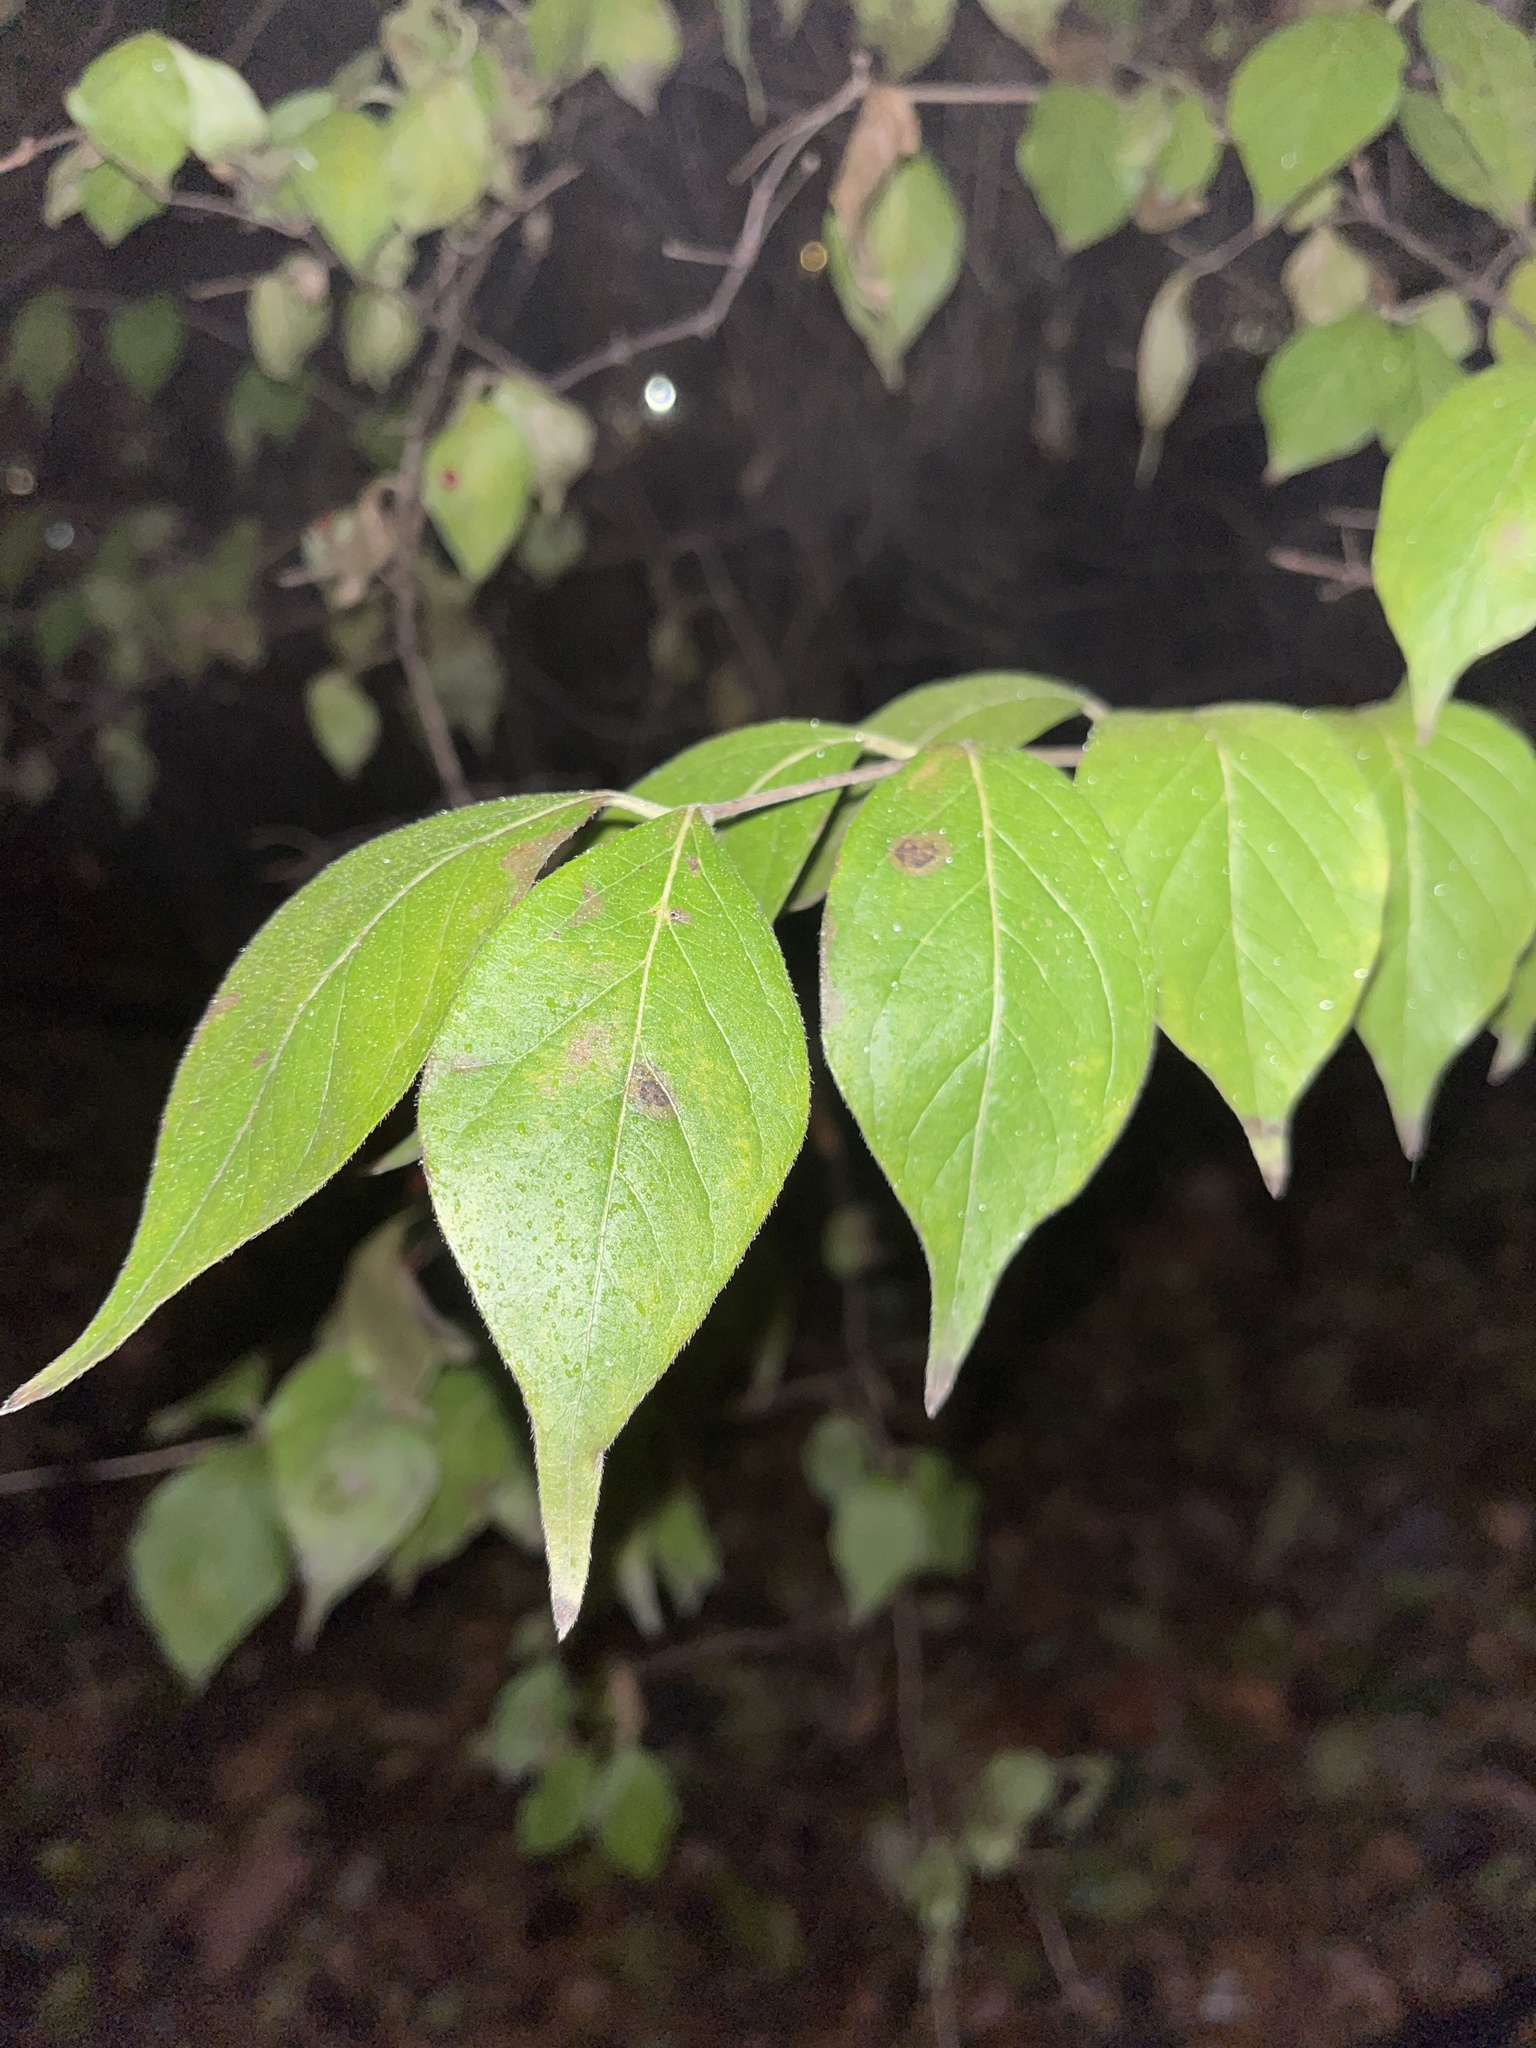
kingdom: Plantae
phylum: Tracheophyta
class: Magnoliopsida
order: Dipsacales
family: Caprifoliaceae
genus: Lonicera
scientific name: Lonicera maackii
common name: Amur honeysuckle
